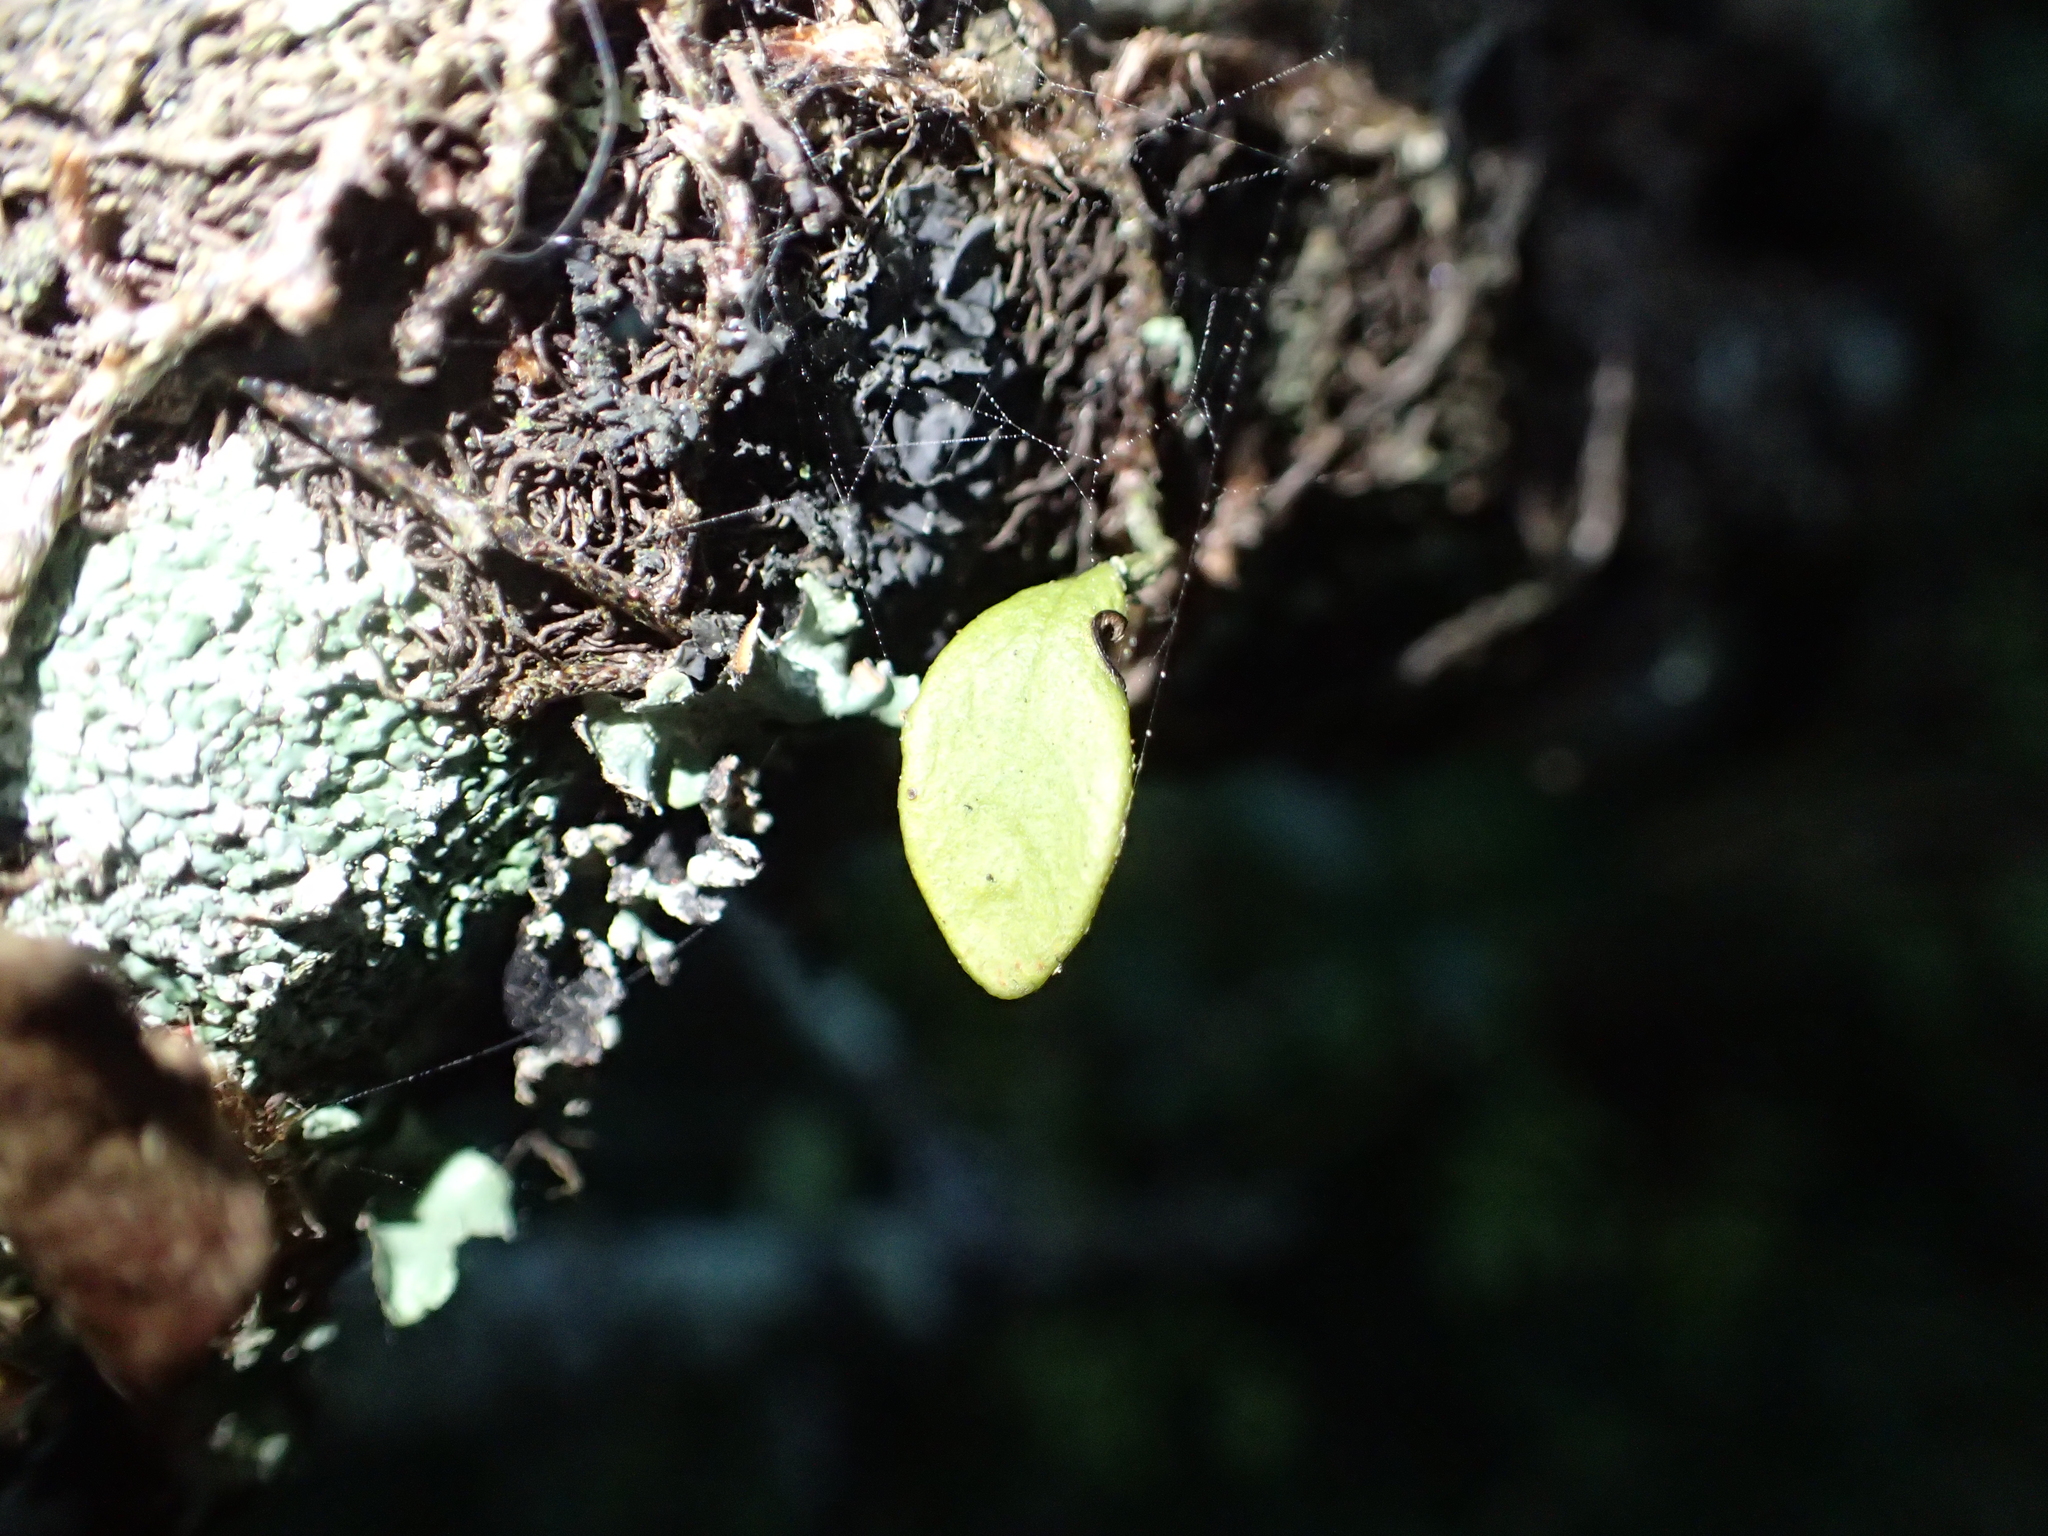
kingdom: Plantae
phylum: Tracheophyta
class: Polypodiopsida
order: Polypodiales
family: Polypodiaceae
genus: Pyrrosia
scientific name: Pyrrosia eleagnifolia
